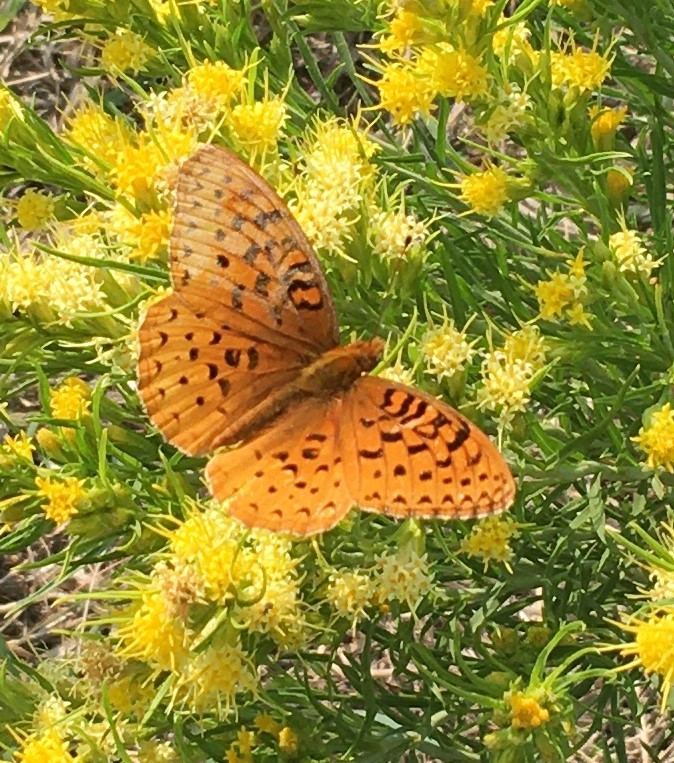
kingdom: Animalia
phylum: Arthropoda
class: Insecta
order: Lepidoptera
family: Nymphalidae
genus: Speyeria
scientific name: Speyeria aphrodite
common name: Aphrodite friitllary
